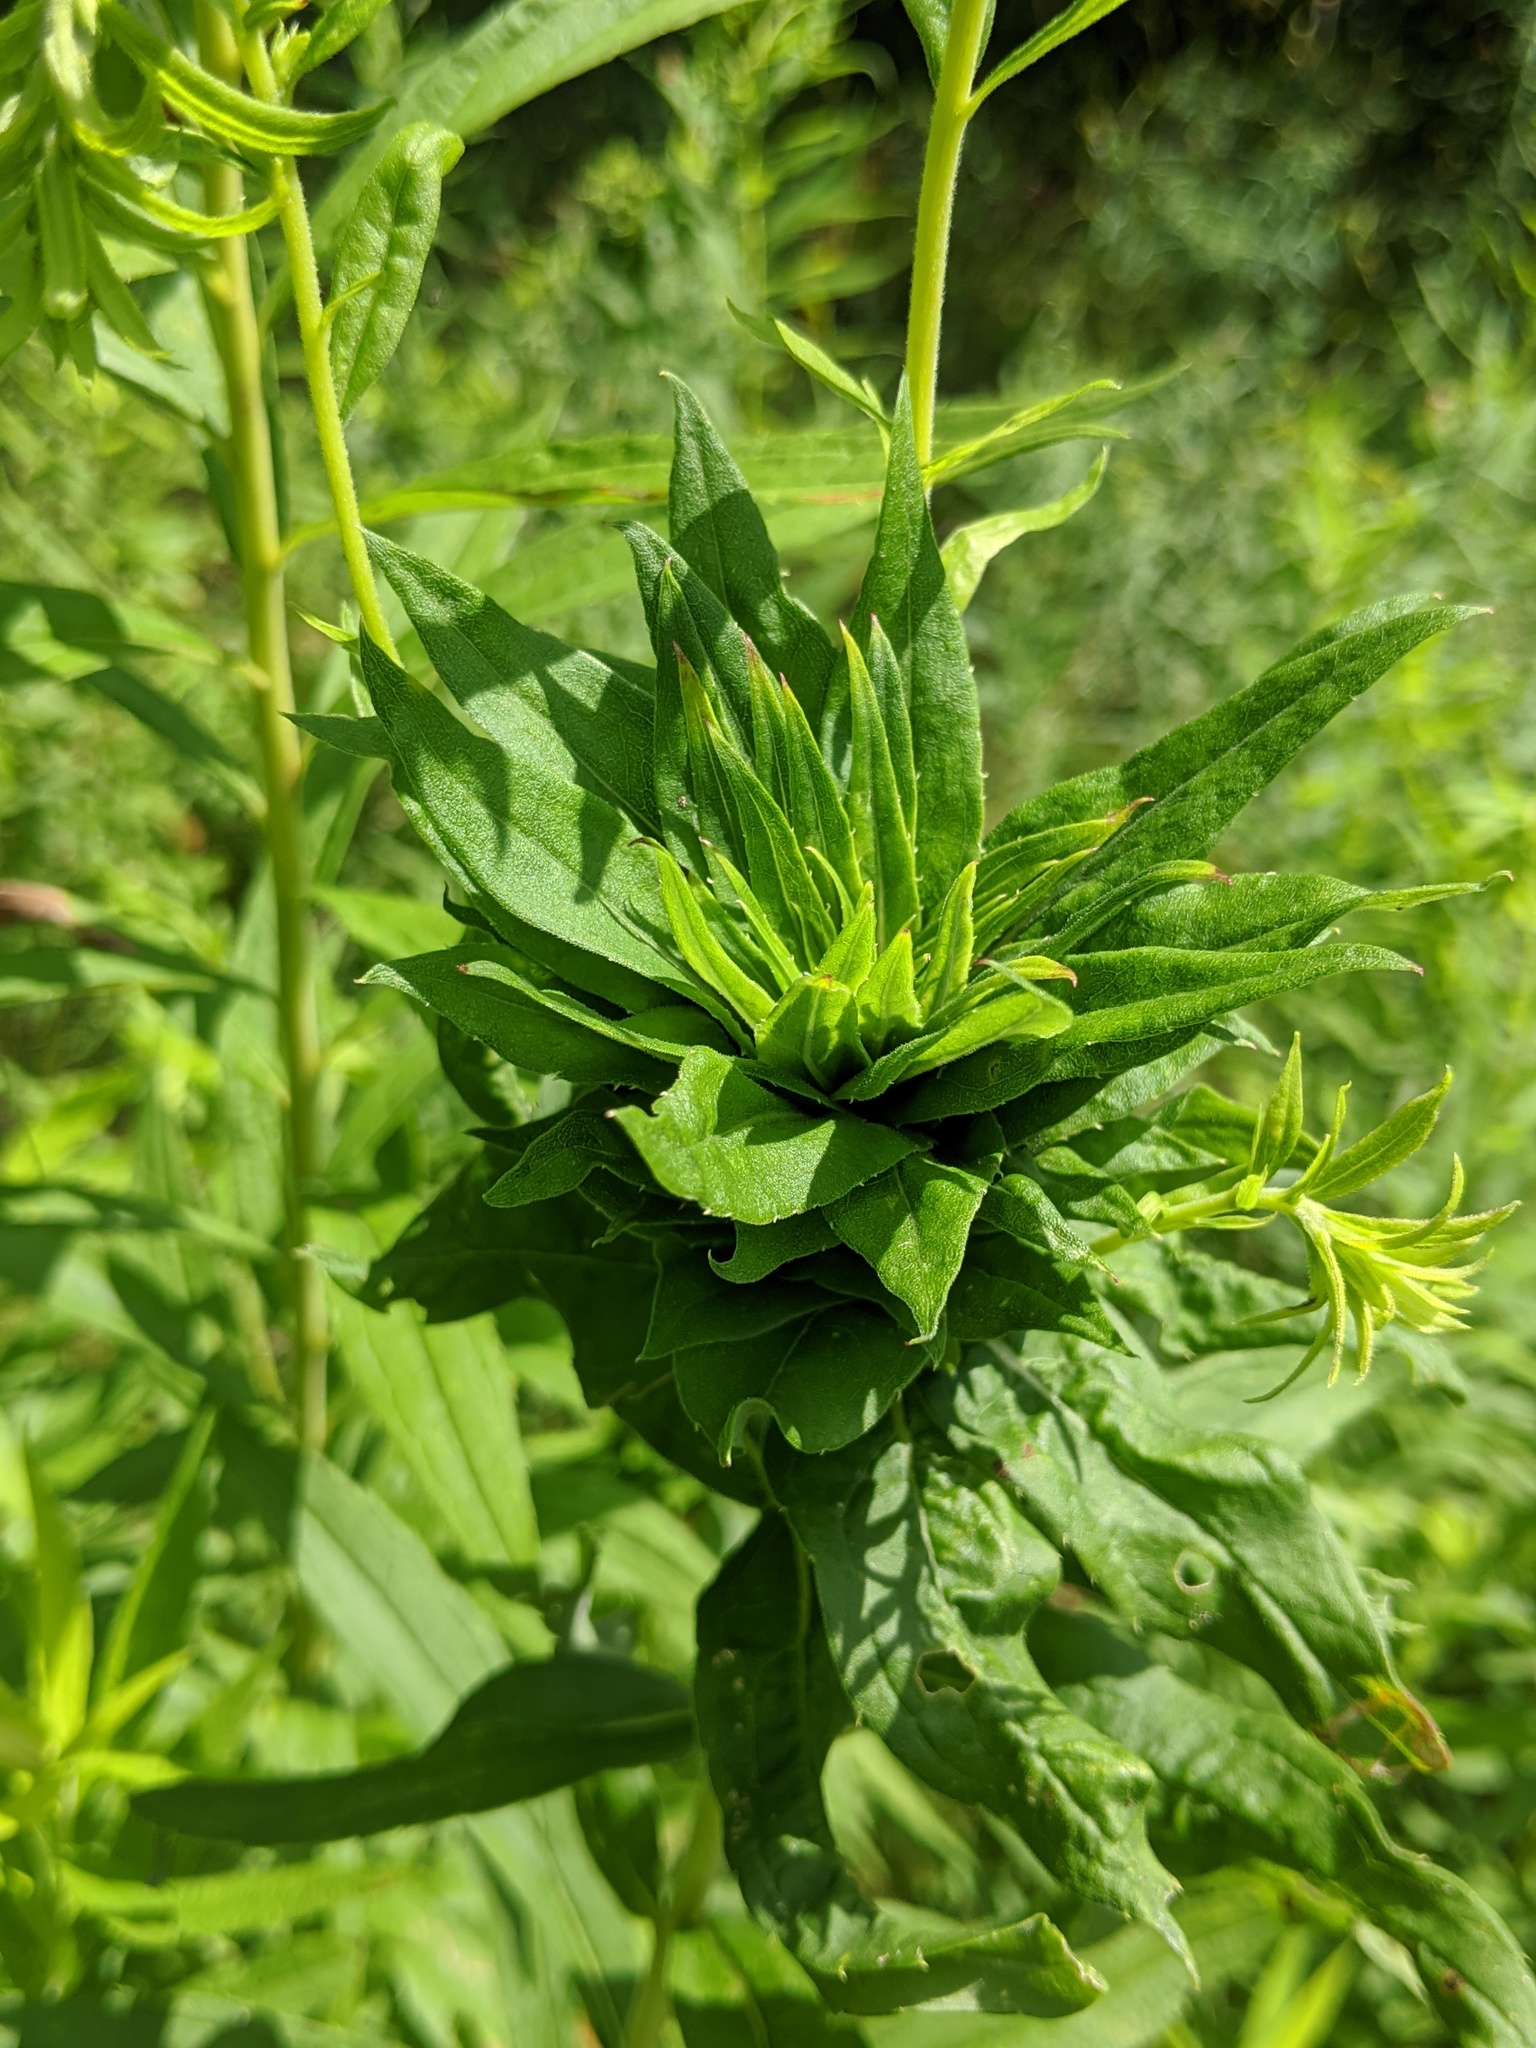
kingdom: Animalia
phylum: Arthropoda
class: Insecta
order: Diptera
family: Cecidomyiidae
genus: Rhopalomyia
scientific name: Rhopalomyia solidaginis
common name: Goldenrod bunch gall midge
